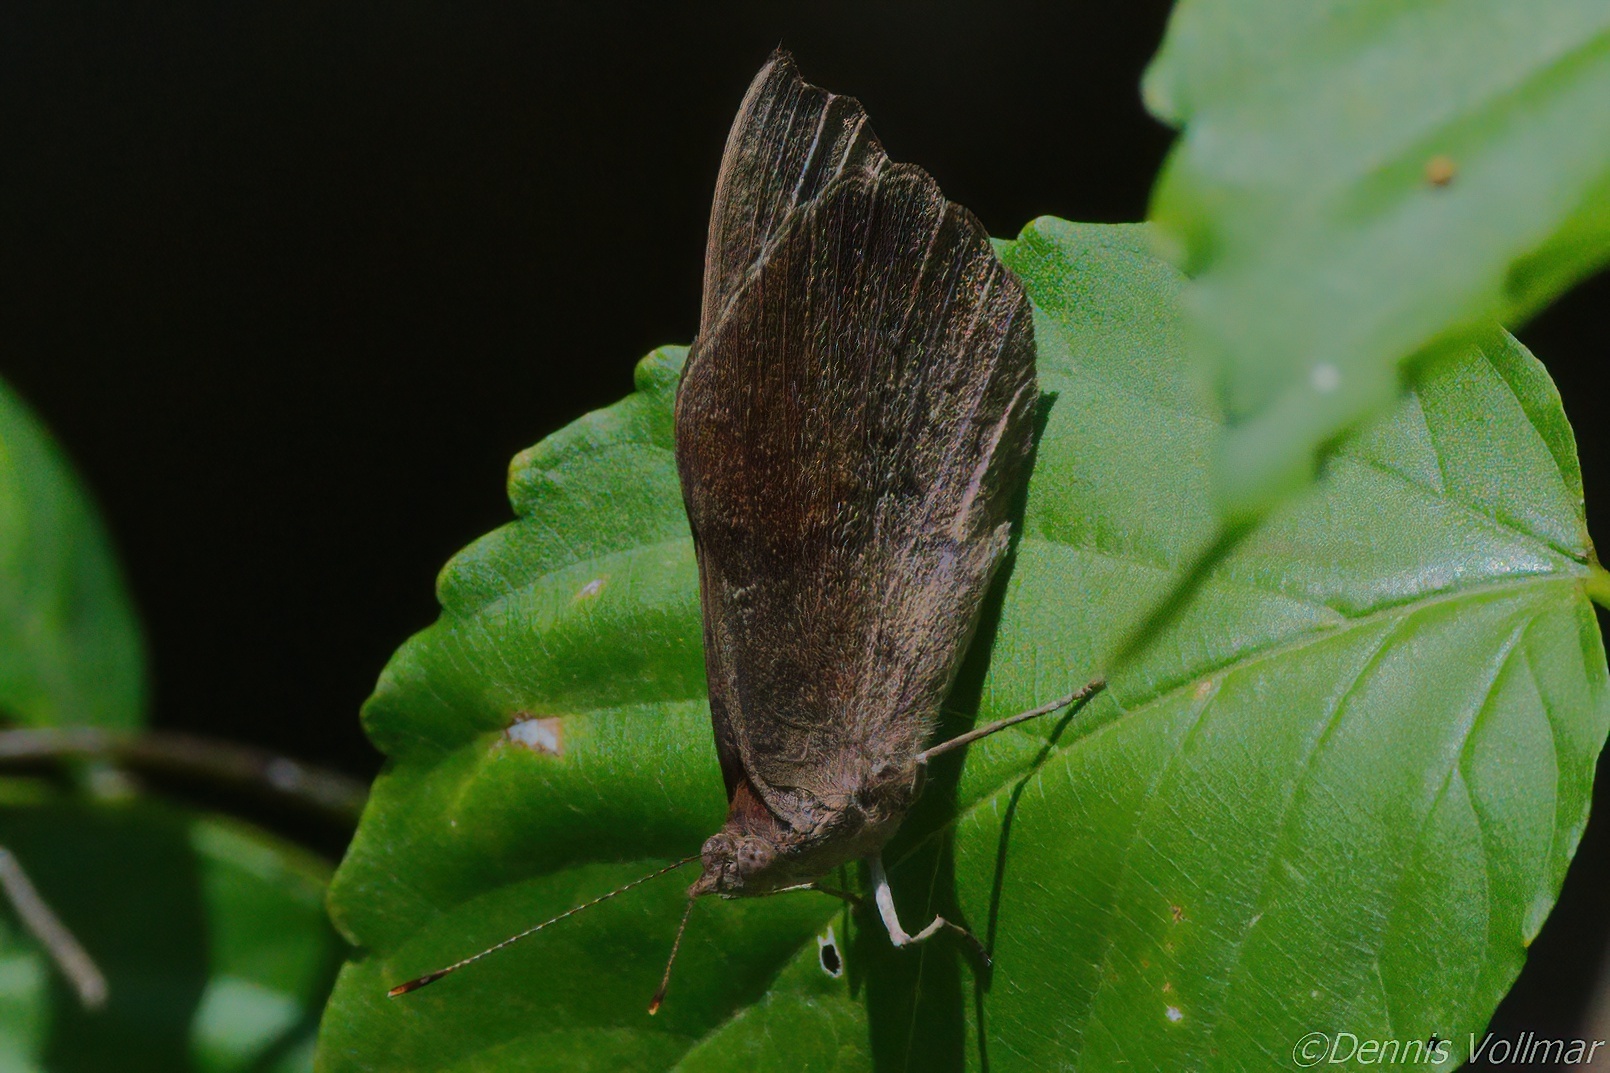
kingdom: Animalia
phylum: Arthropoda
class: Insecta
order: Lepidoptera
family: Nymphalidae
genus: Eunica
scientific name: Eunica tatila
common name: Florida purplewing
